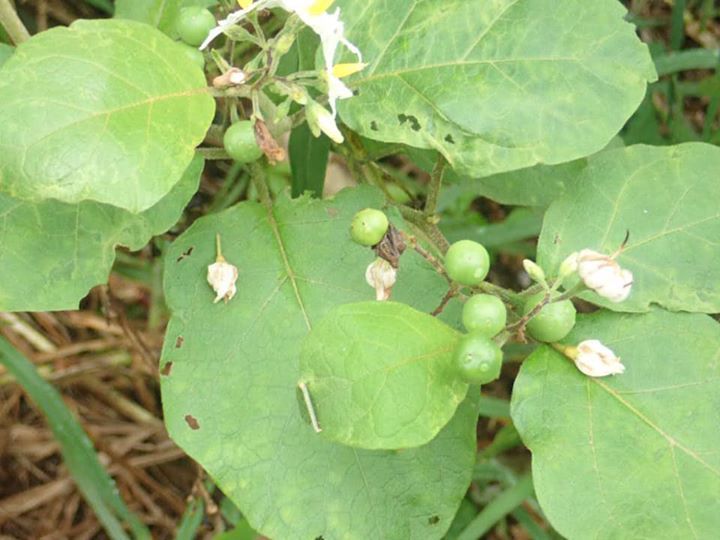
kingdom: Plantae
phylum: Tracheophyta
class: Magnoliopsida
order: Solanales
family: Solanaceae
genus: Solanum
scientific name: Solanum torvum
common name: Turkey berry
